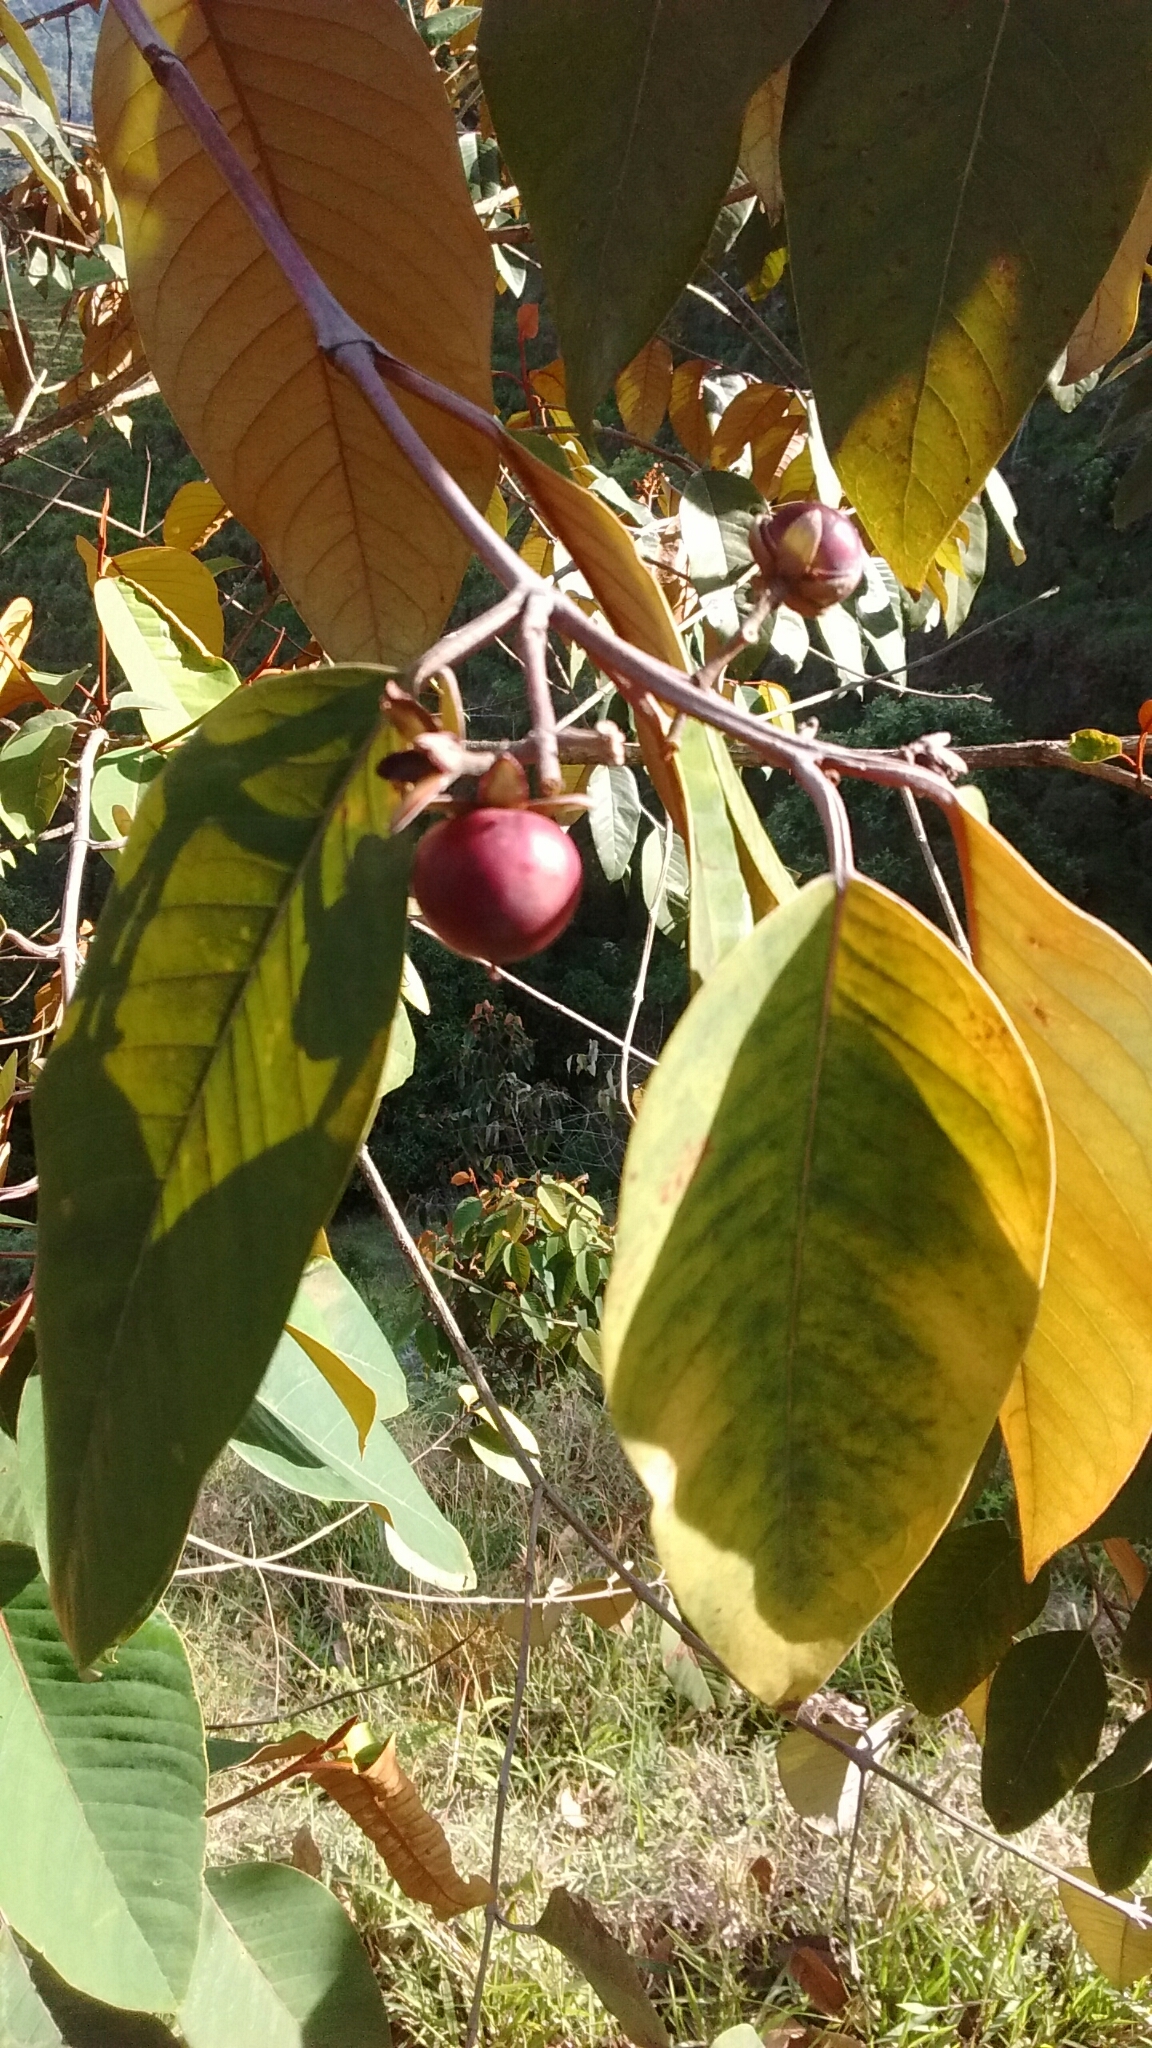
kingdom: Plantae
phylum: Tracheophyta
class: Magnoliopsida
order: Malpighiales
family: Hypericaceae
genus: Vismia
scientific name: Vismia baccifera
